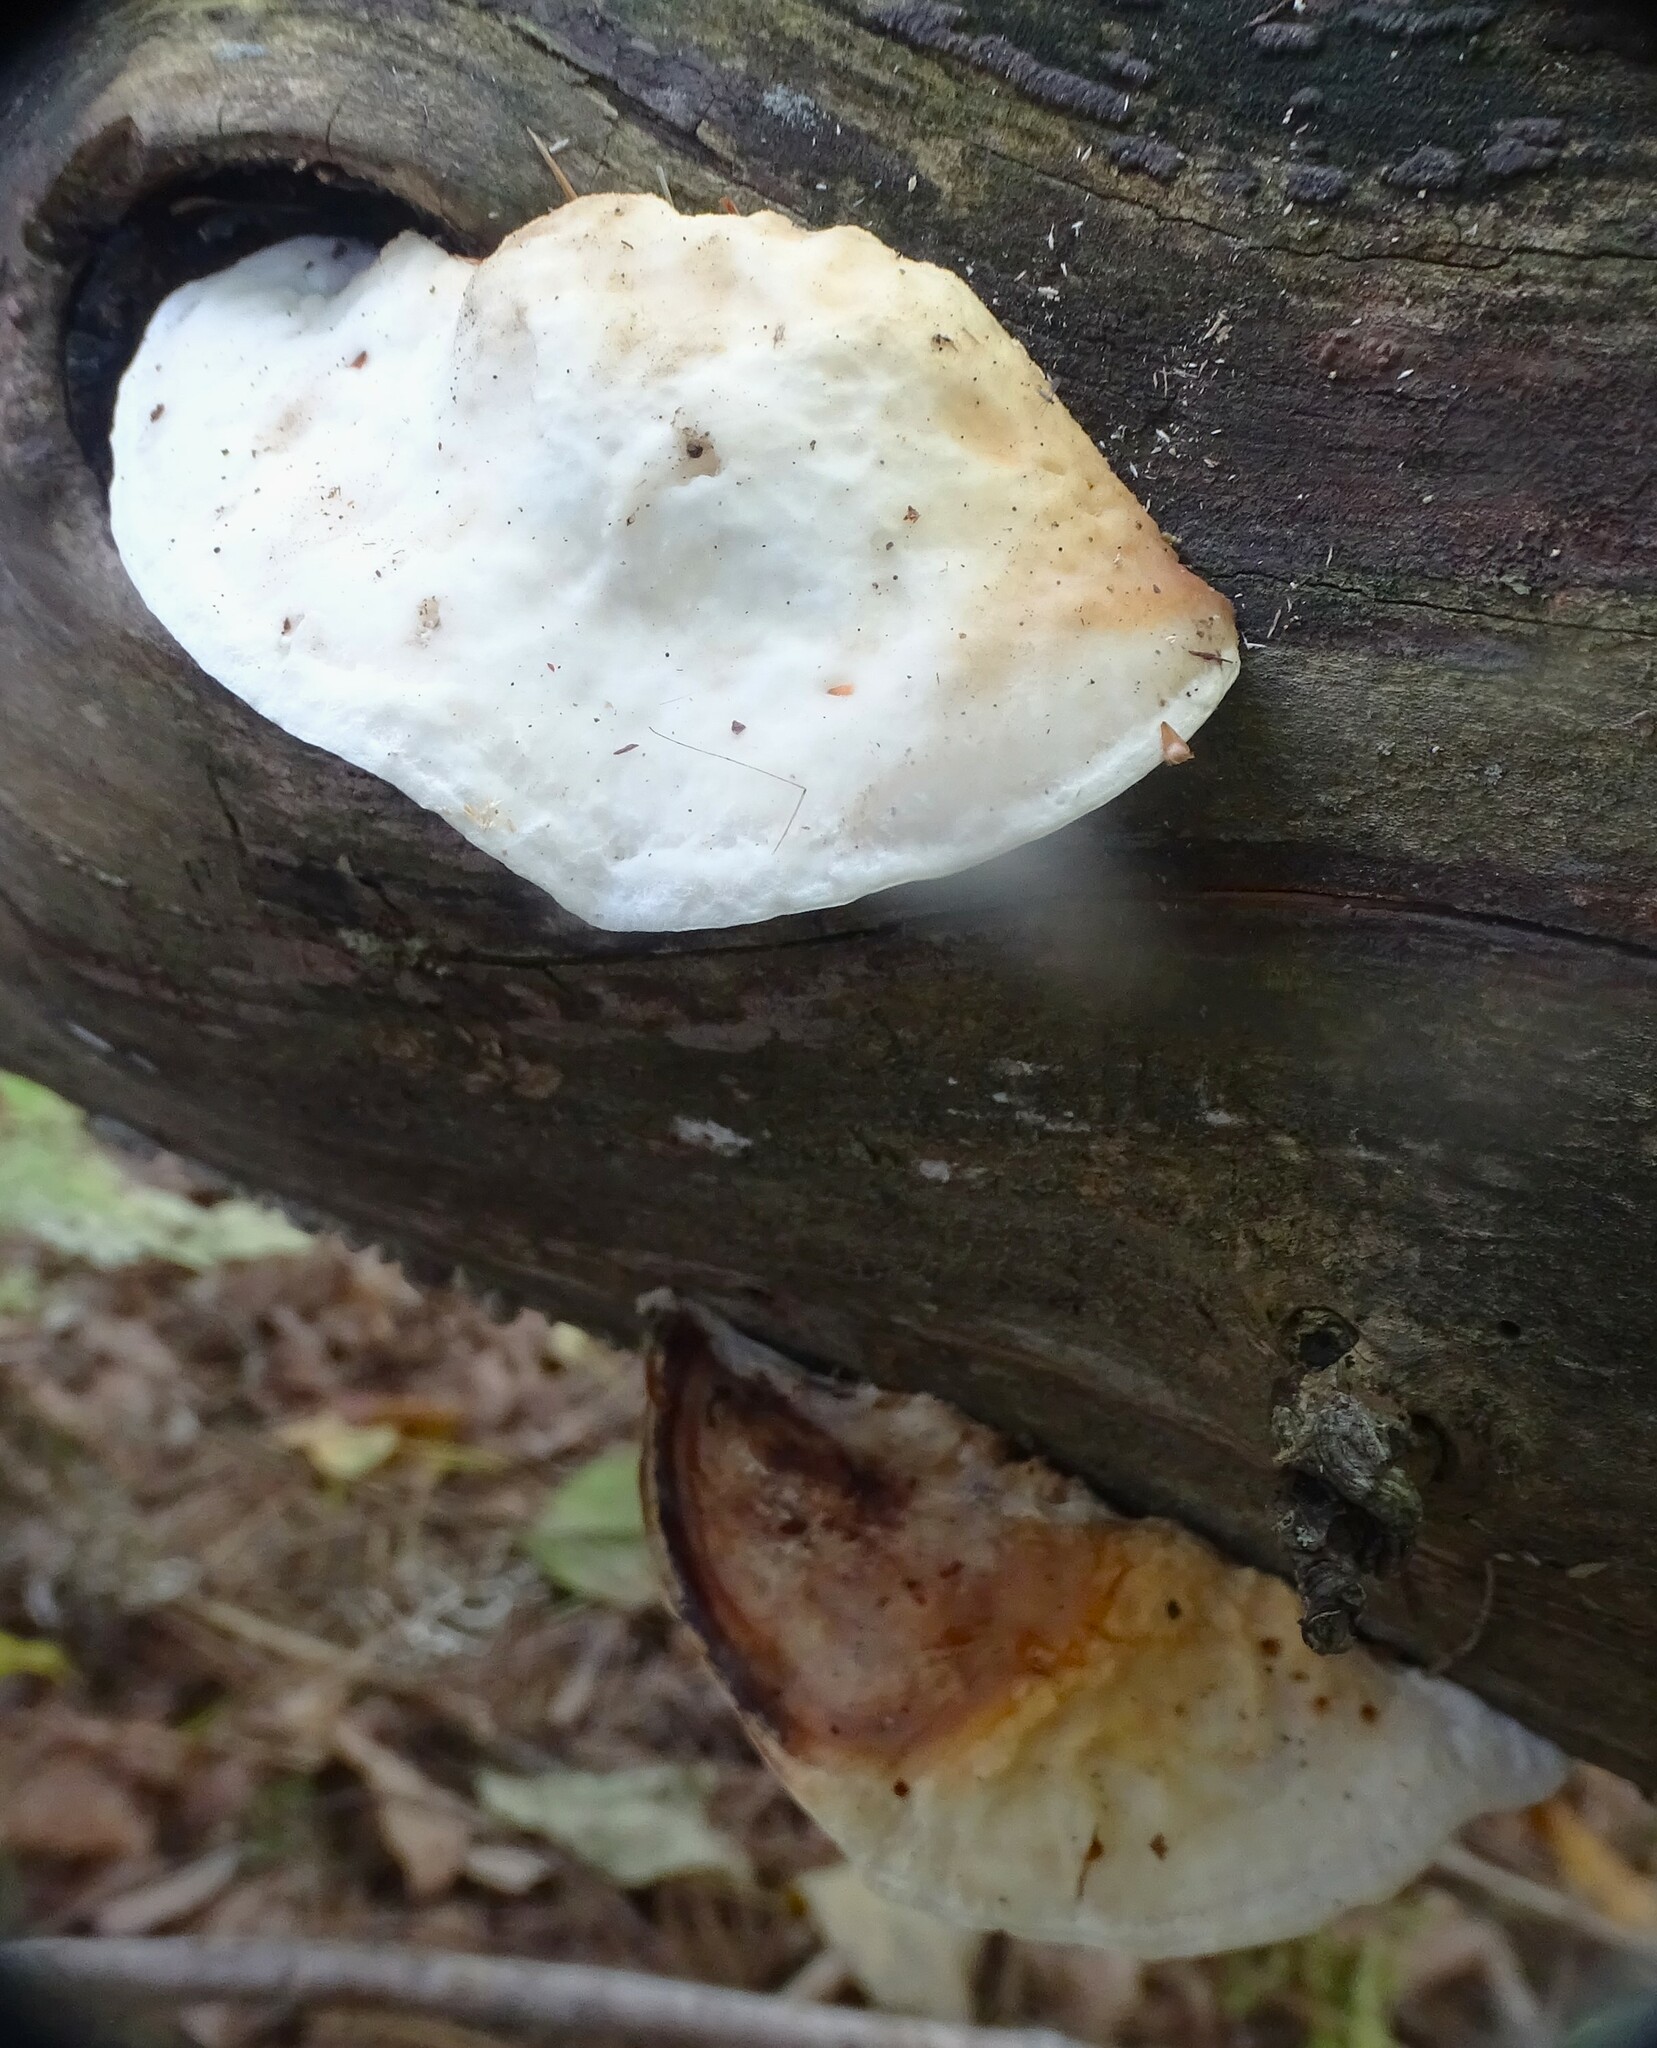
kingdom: Fungi
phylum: Basidiomycota
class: Agaricomycetes
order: Polyporales
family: Incrustoporiaceae
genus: Tyromyces
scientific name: Tyromyces chioneus
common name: White cheese polypore
